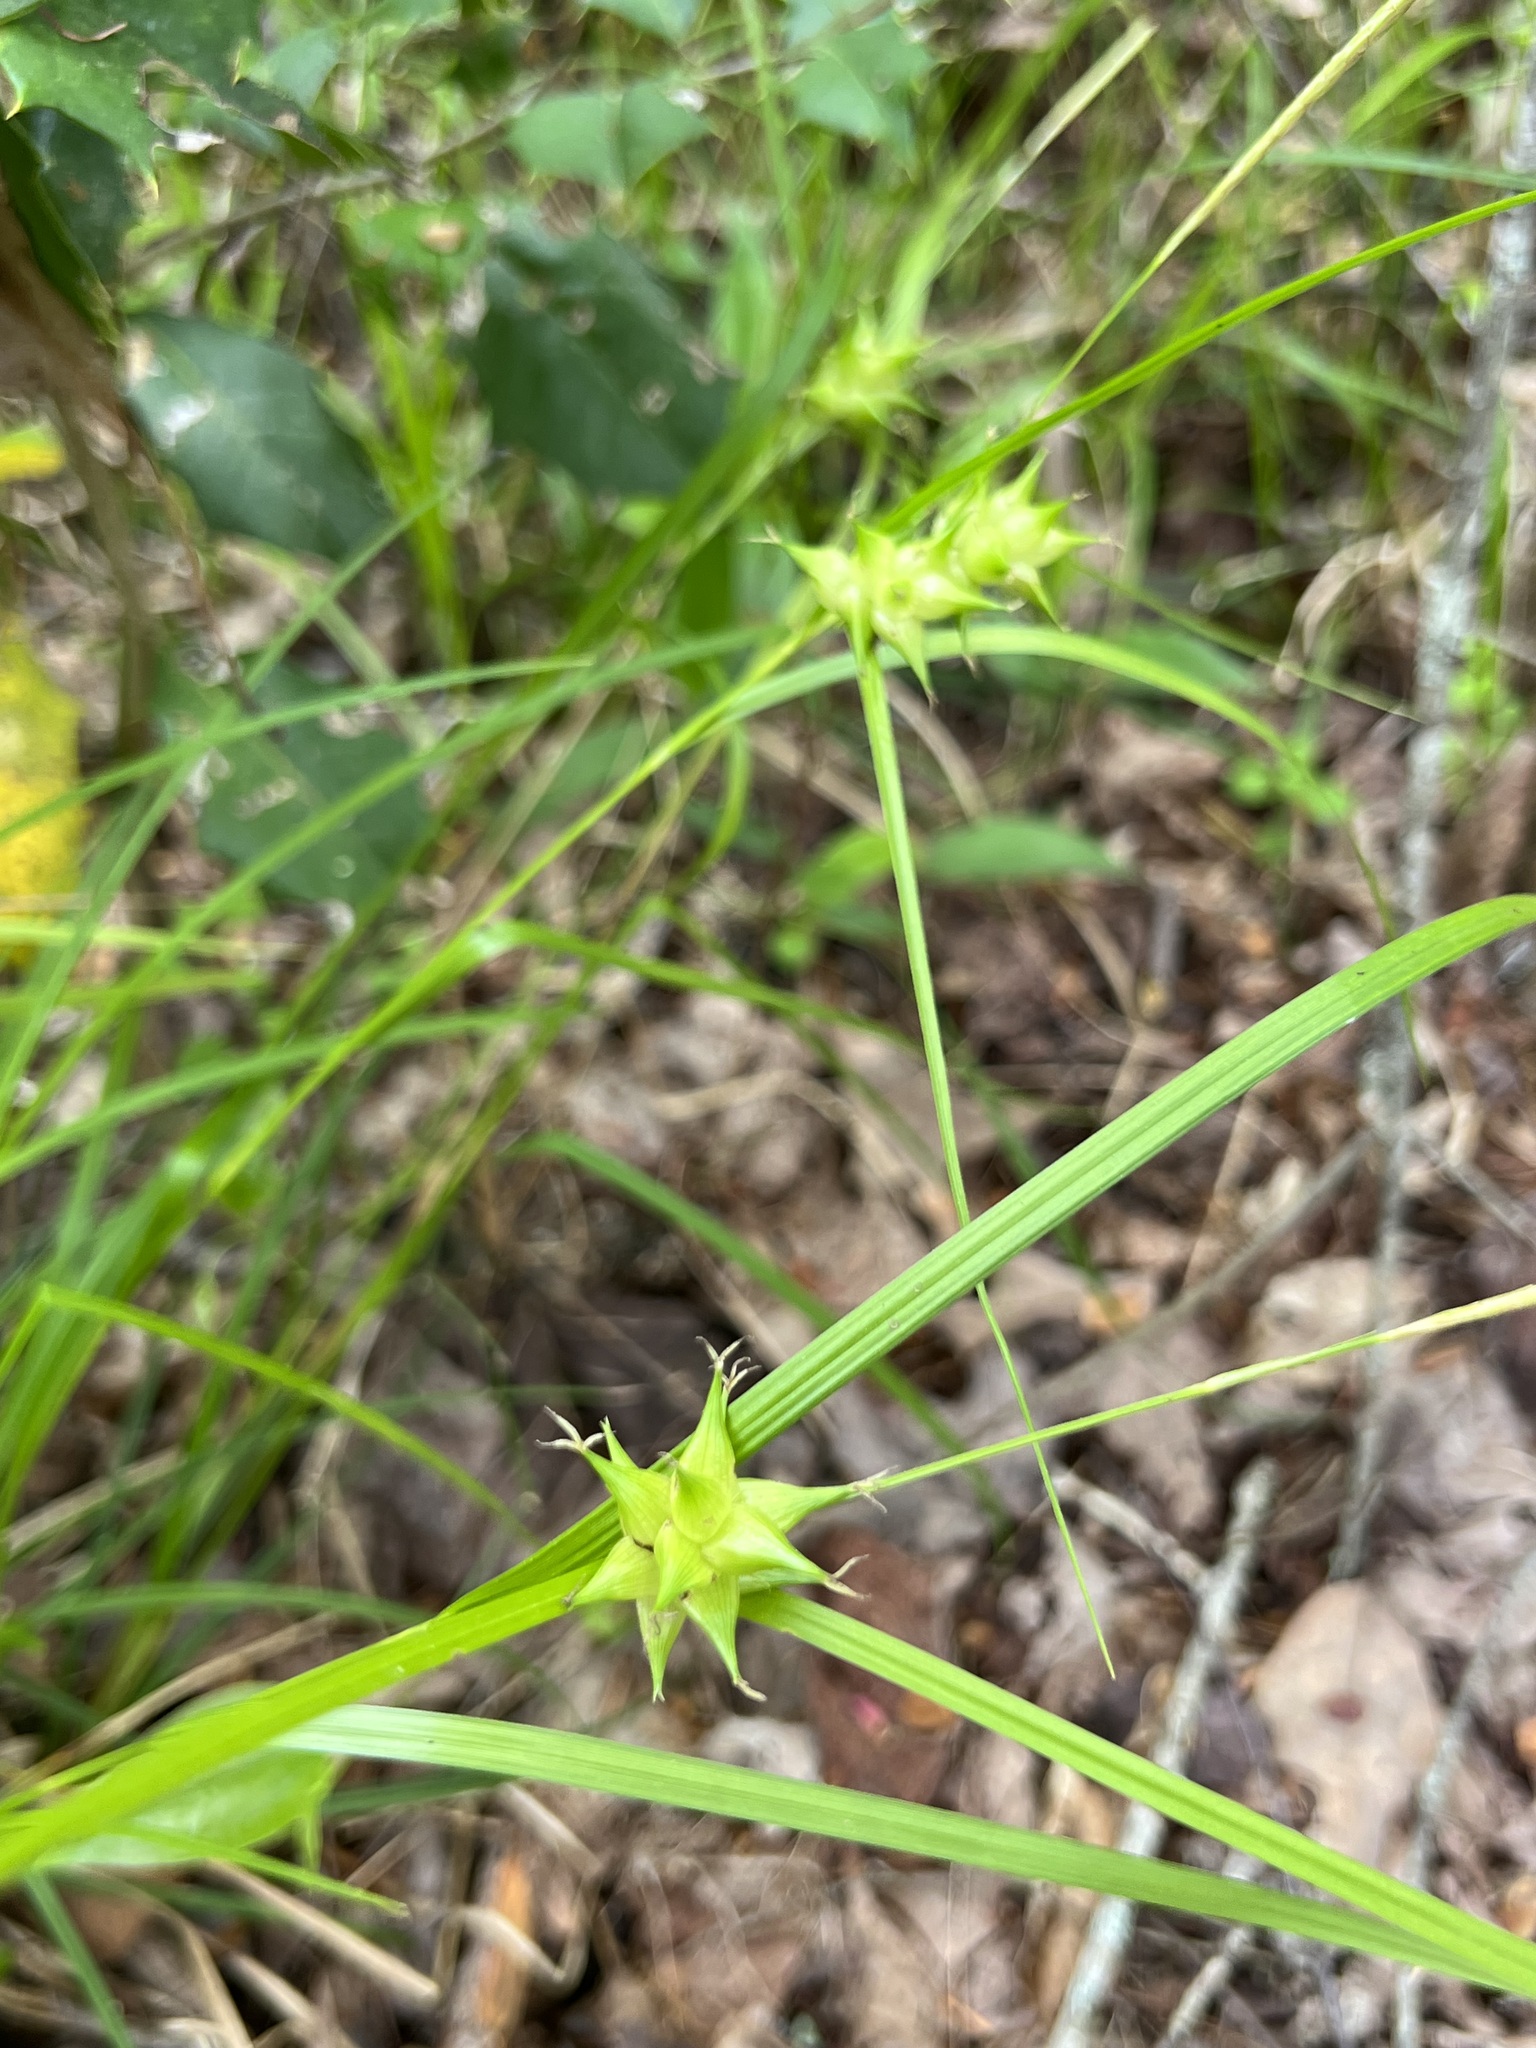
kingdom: Plantae
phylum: Tracheophyta
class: Liliopsida
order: Poales
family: Cyperaceae
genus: Carex
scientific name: Carex intumescens
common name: Greater bladder sedge
